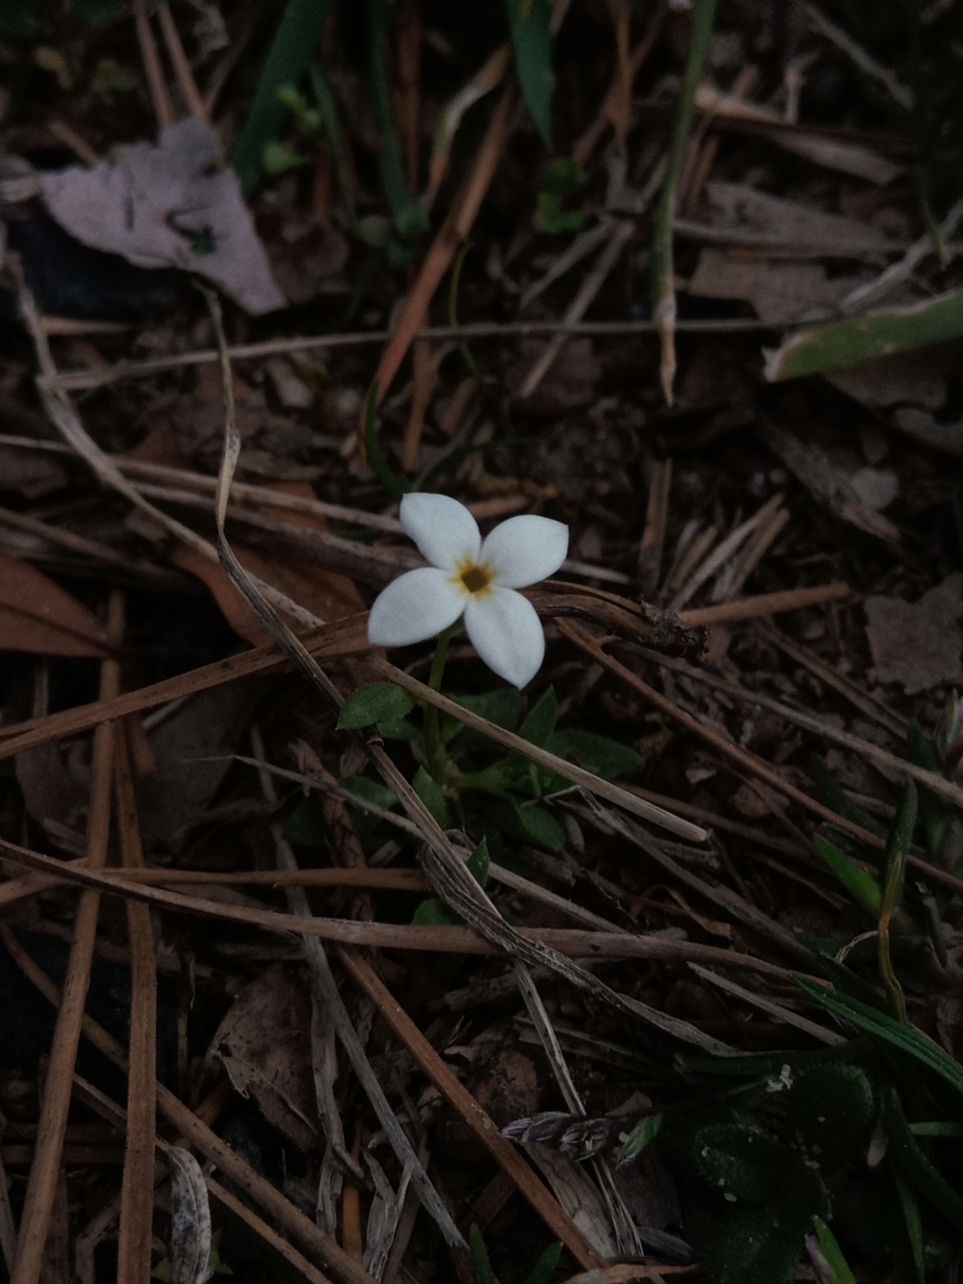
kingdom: Plantae
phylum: Tracheophyta
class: Magnoliopsida
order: Gentianales
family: Rubiaceae
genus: Houstonia
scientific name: Houstonia pusilla
